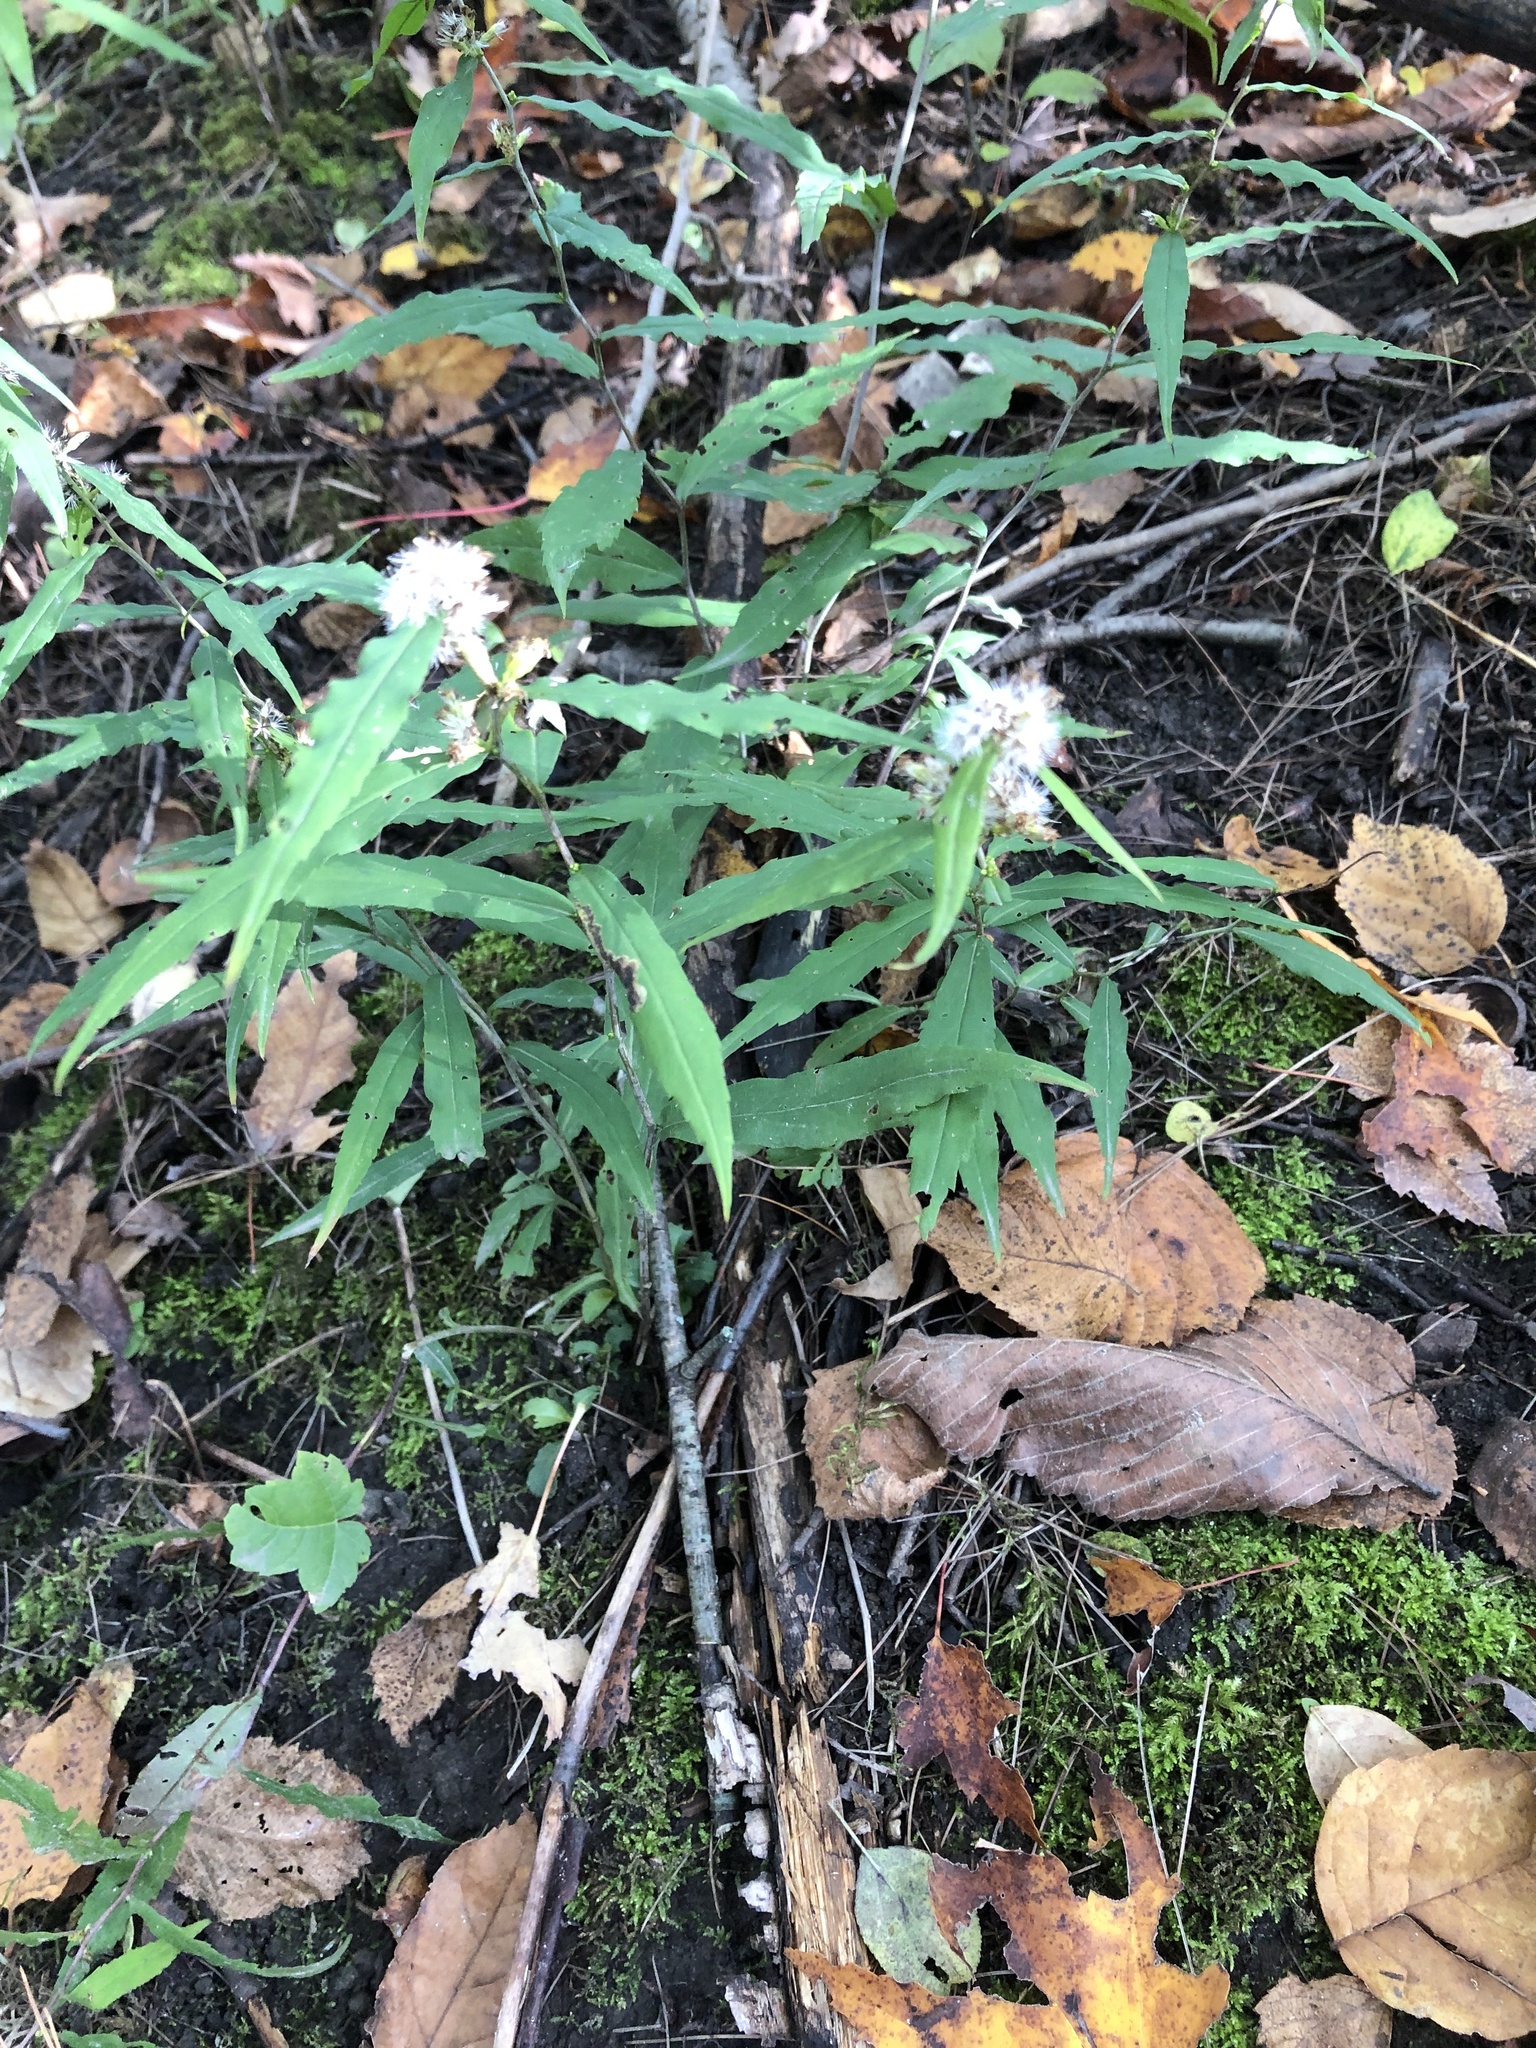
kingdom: Plantae
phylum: Tracheophyta
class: Magnoliopsida
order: Asterales
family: Asteraceae
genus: Solidago
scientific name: Solidago caesia
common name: Woodland goldenrod
